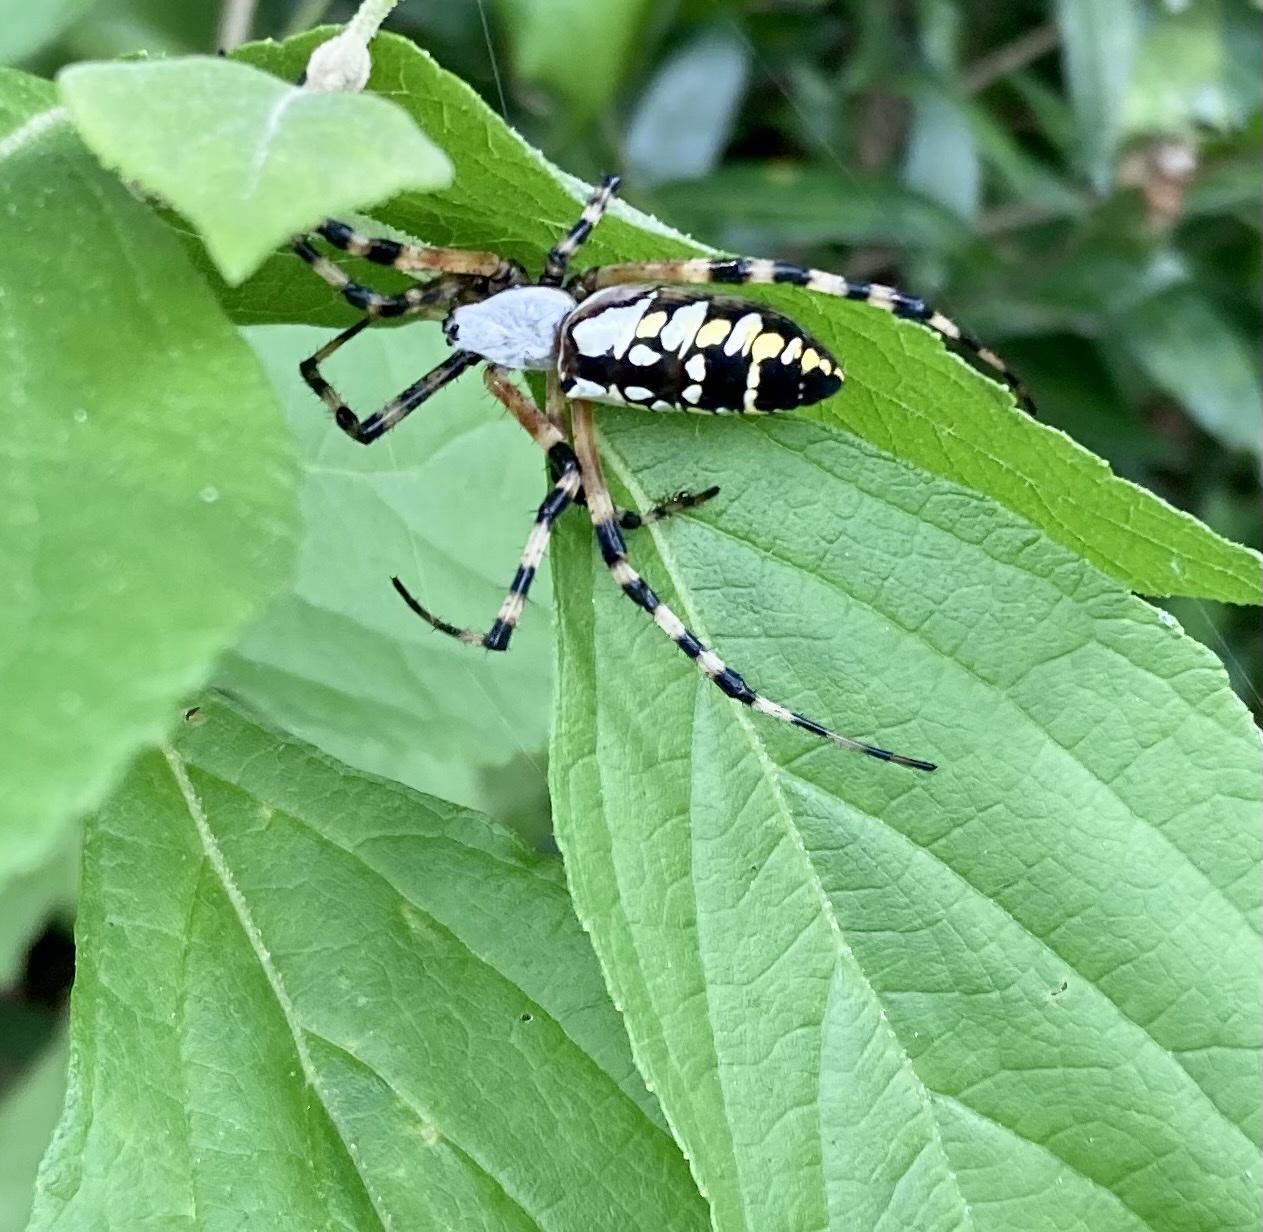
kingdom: Animalia
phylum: Arthropoda
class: Arachnida
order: Araneae
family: Araneidae
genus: Argiope
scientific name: Argiope aurantia
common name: Orb weavers
